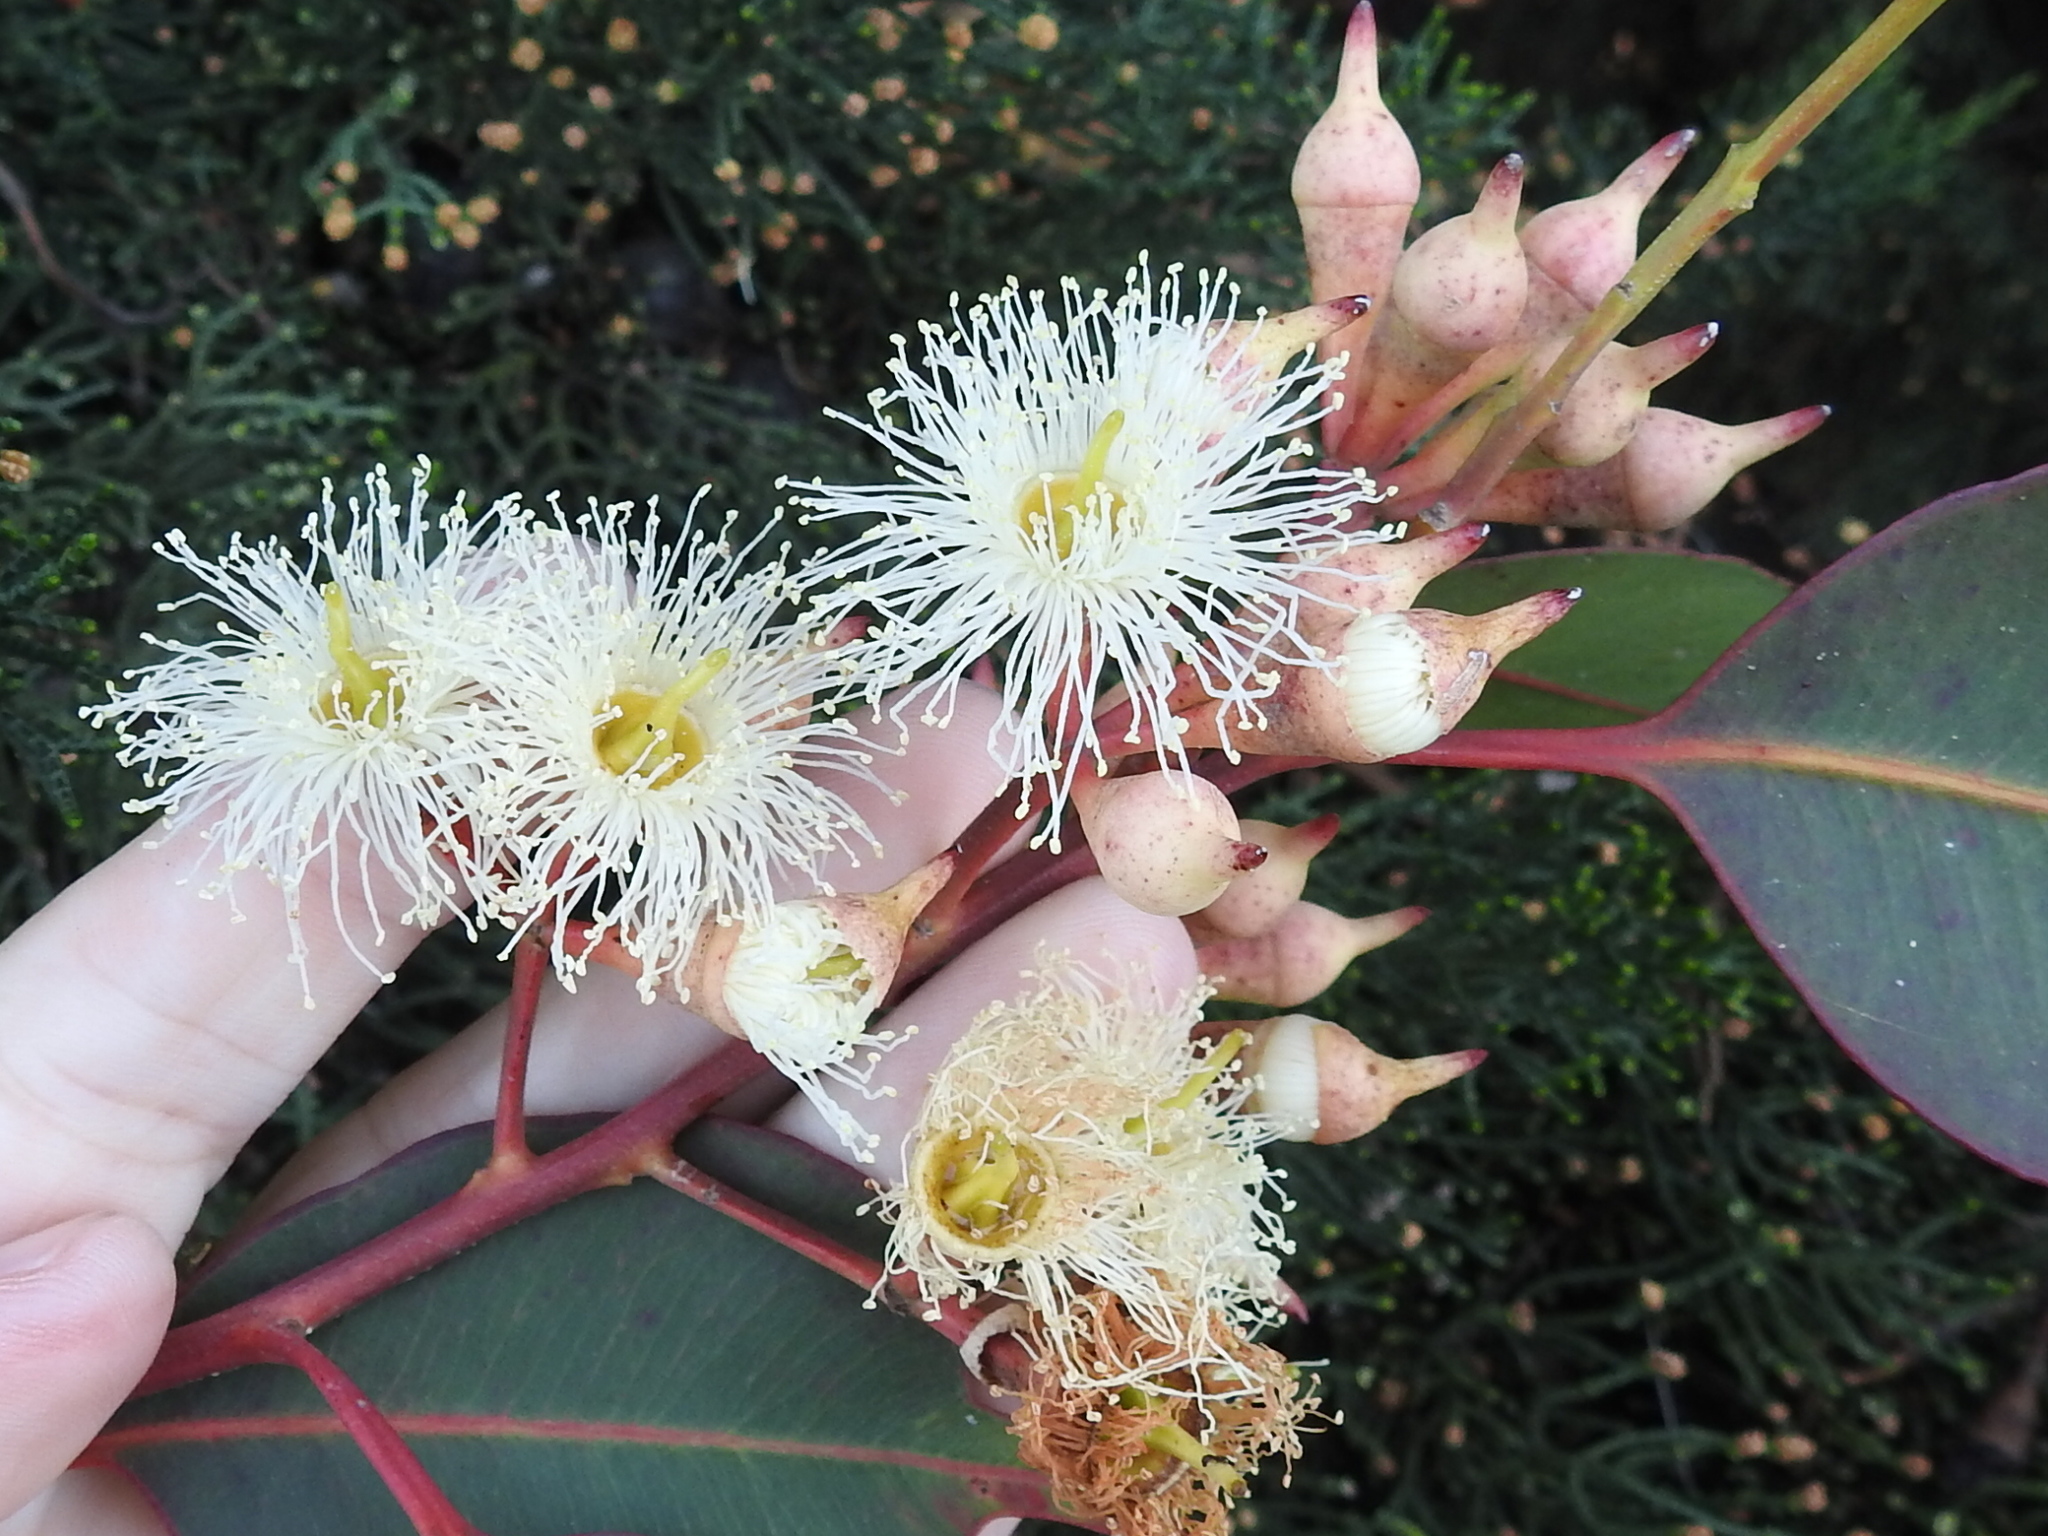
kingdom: Plantae
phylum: Tracheophyta
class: Magnoliopsida
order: Myrtales
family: Myrtaceae
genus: Eucalyptus
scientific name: Eucalyptus robusta
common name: Swampmahogany
